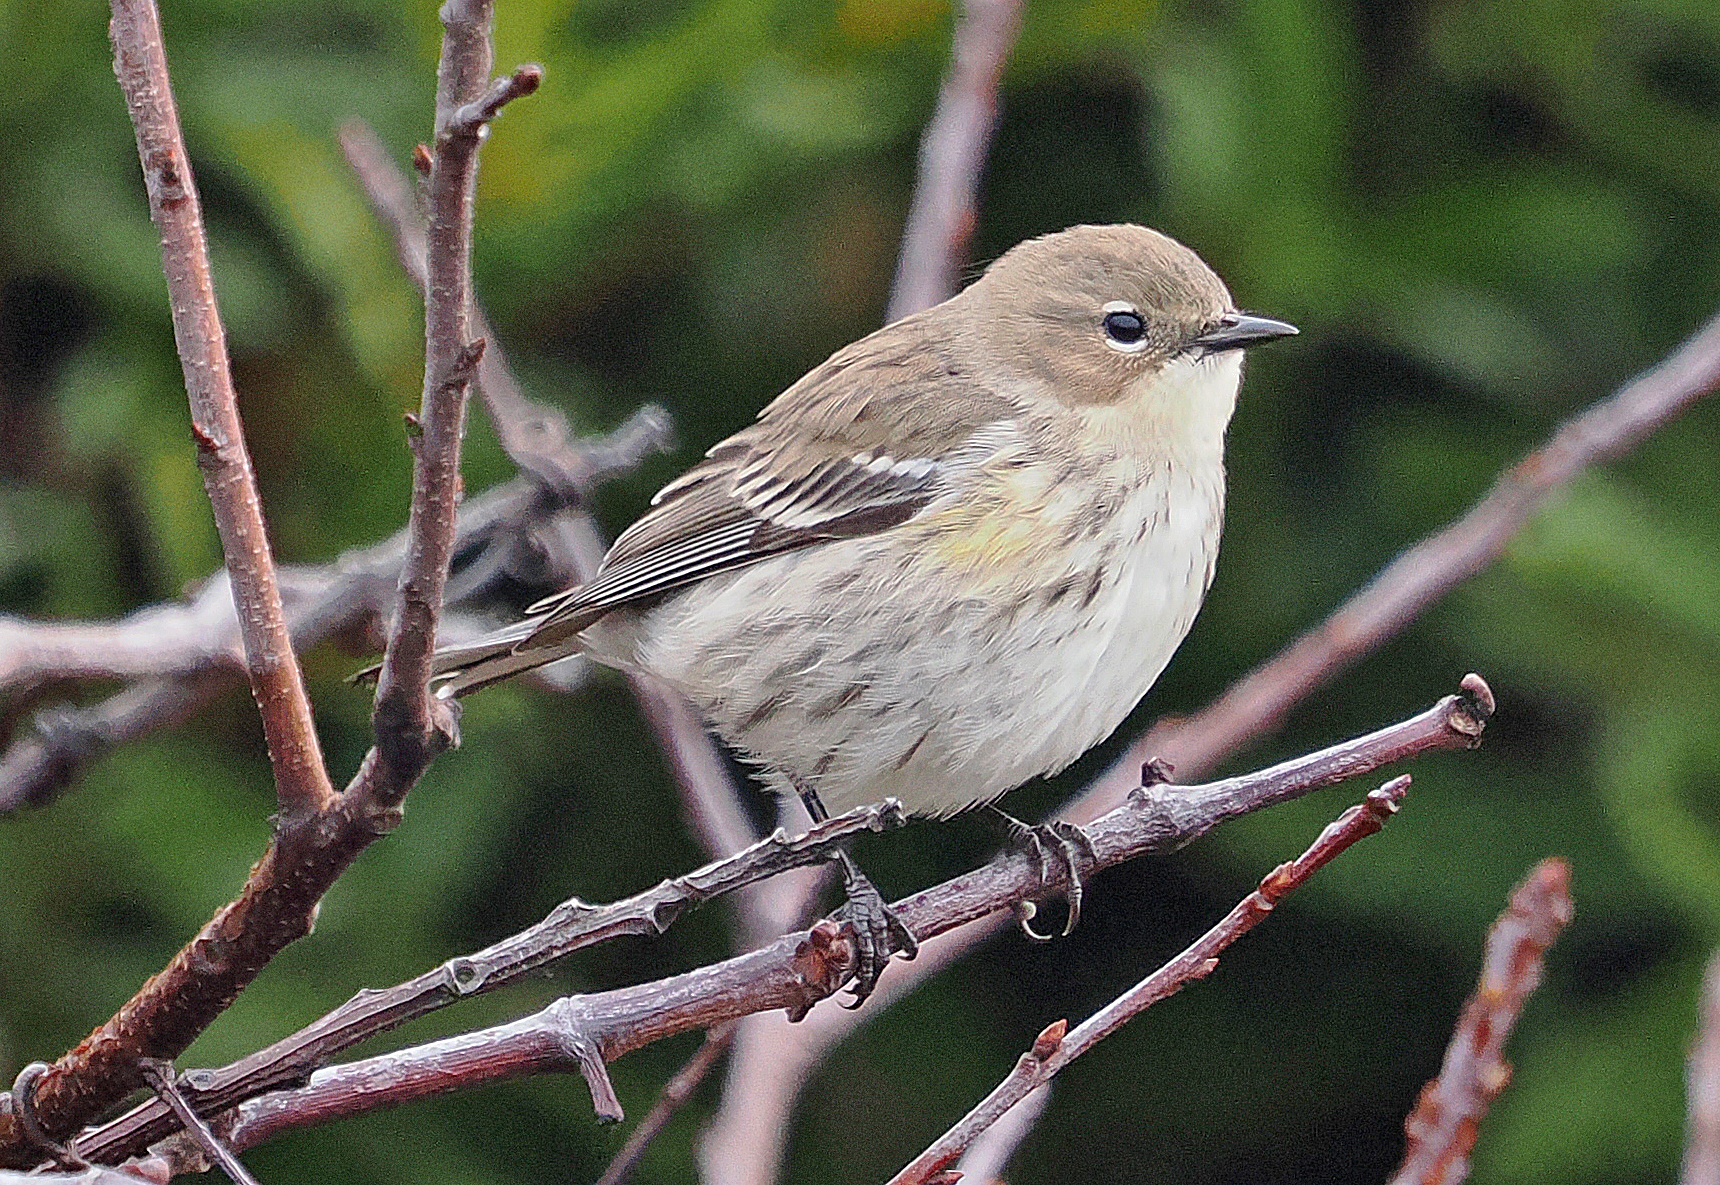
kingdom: Animalia
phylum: Chordata
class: Aves
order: Passeriformes
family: Parulidae
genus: Setophaga
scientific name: Setophaga coronata
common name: Myrtle warbler
